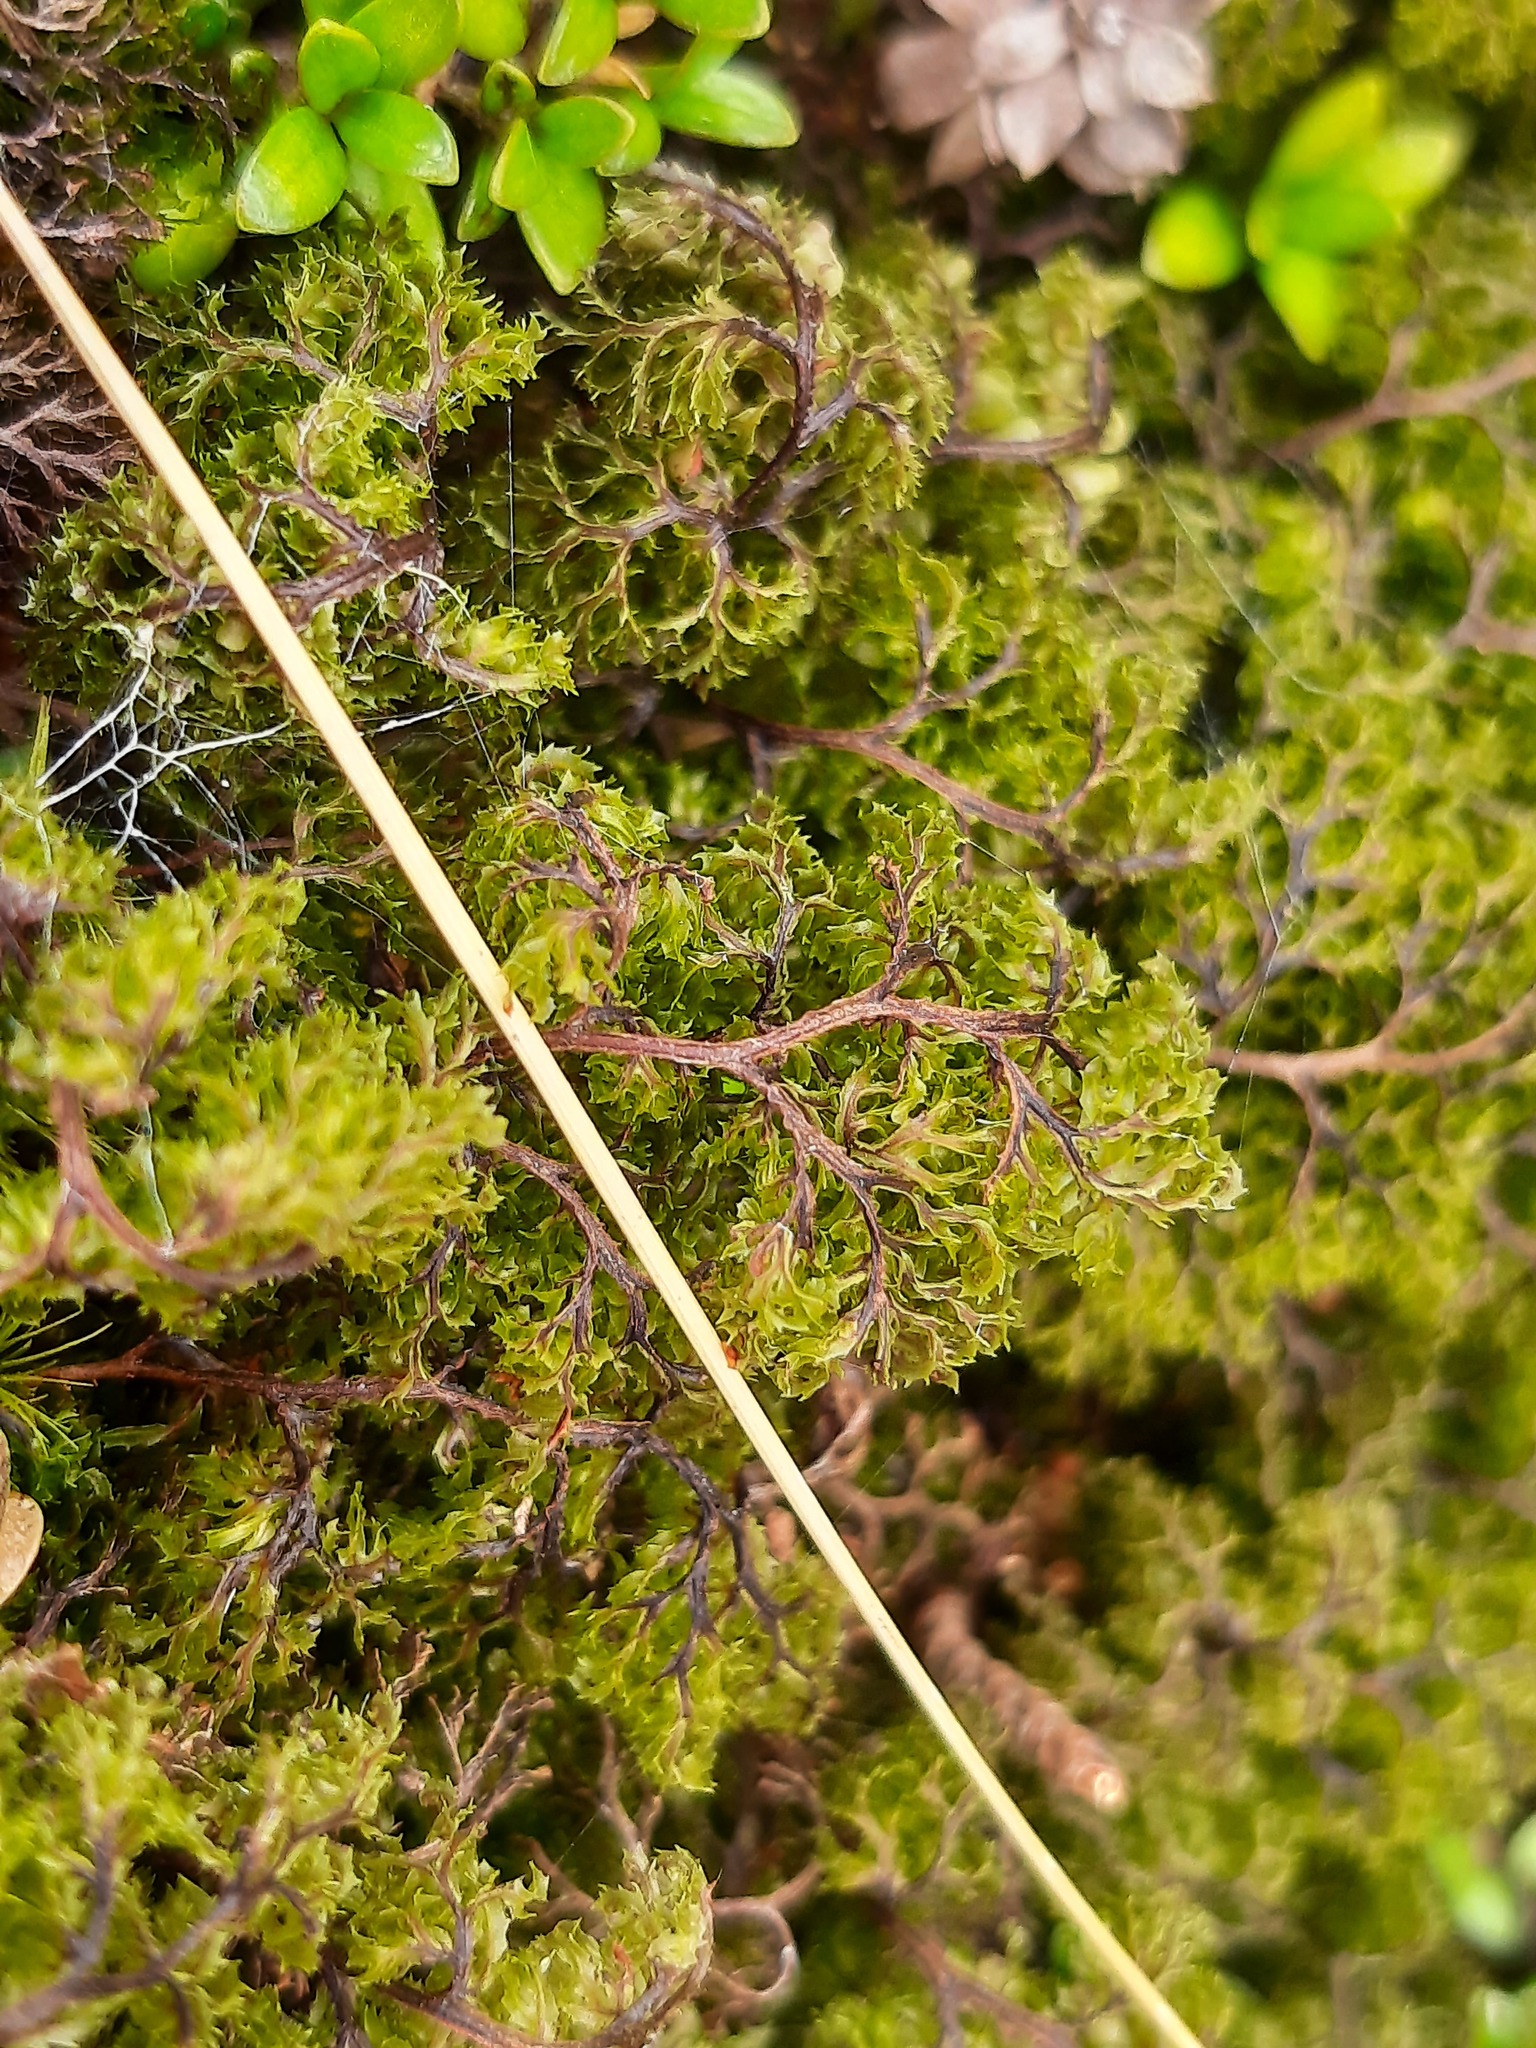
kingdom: Plantae
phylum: Tracheophyta
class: Polypodiopsida
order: Hymenophyllales
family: Hymenophyllaceae
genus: Hymenophyllum
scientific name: Hymenophyllum multifidum
